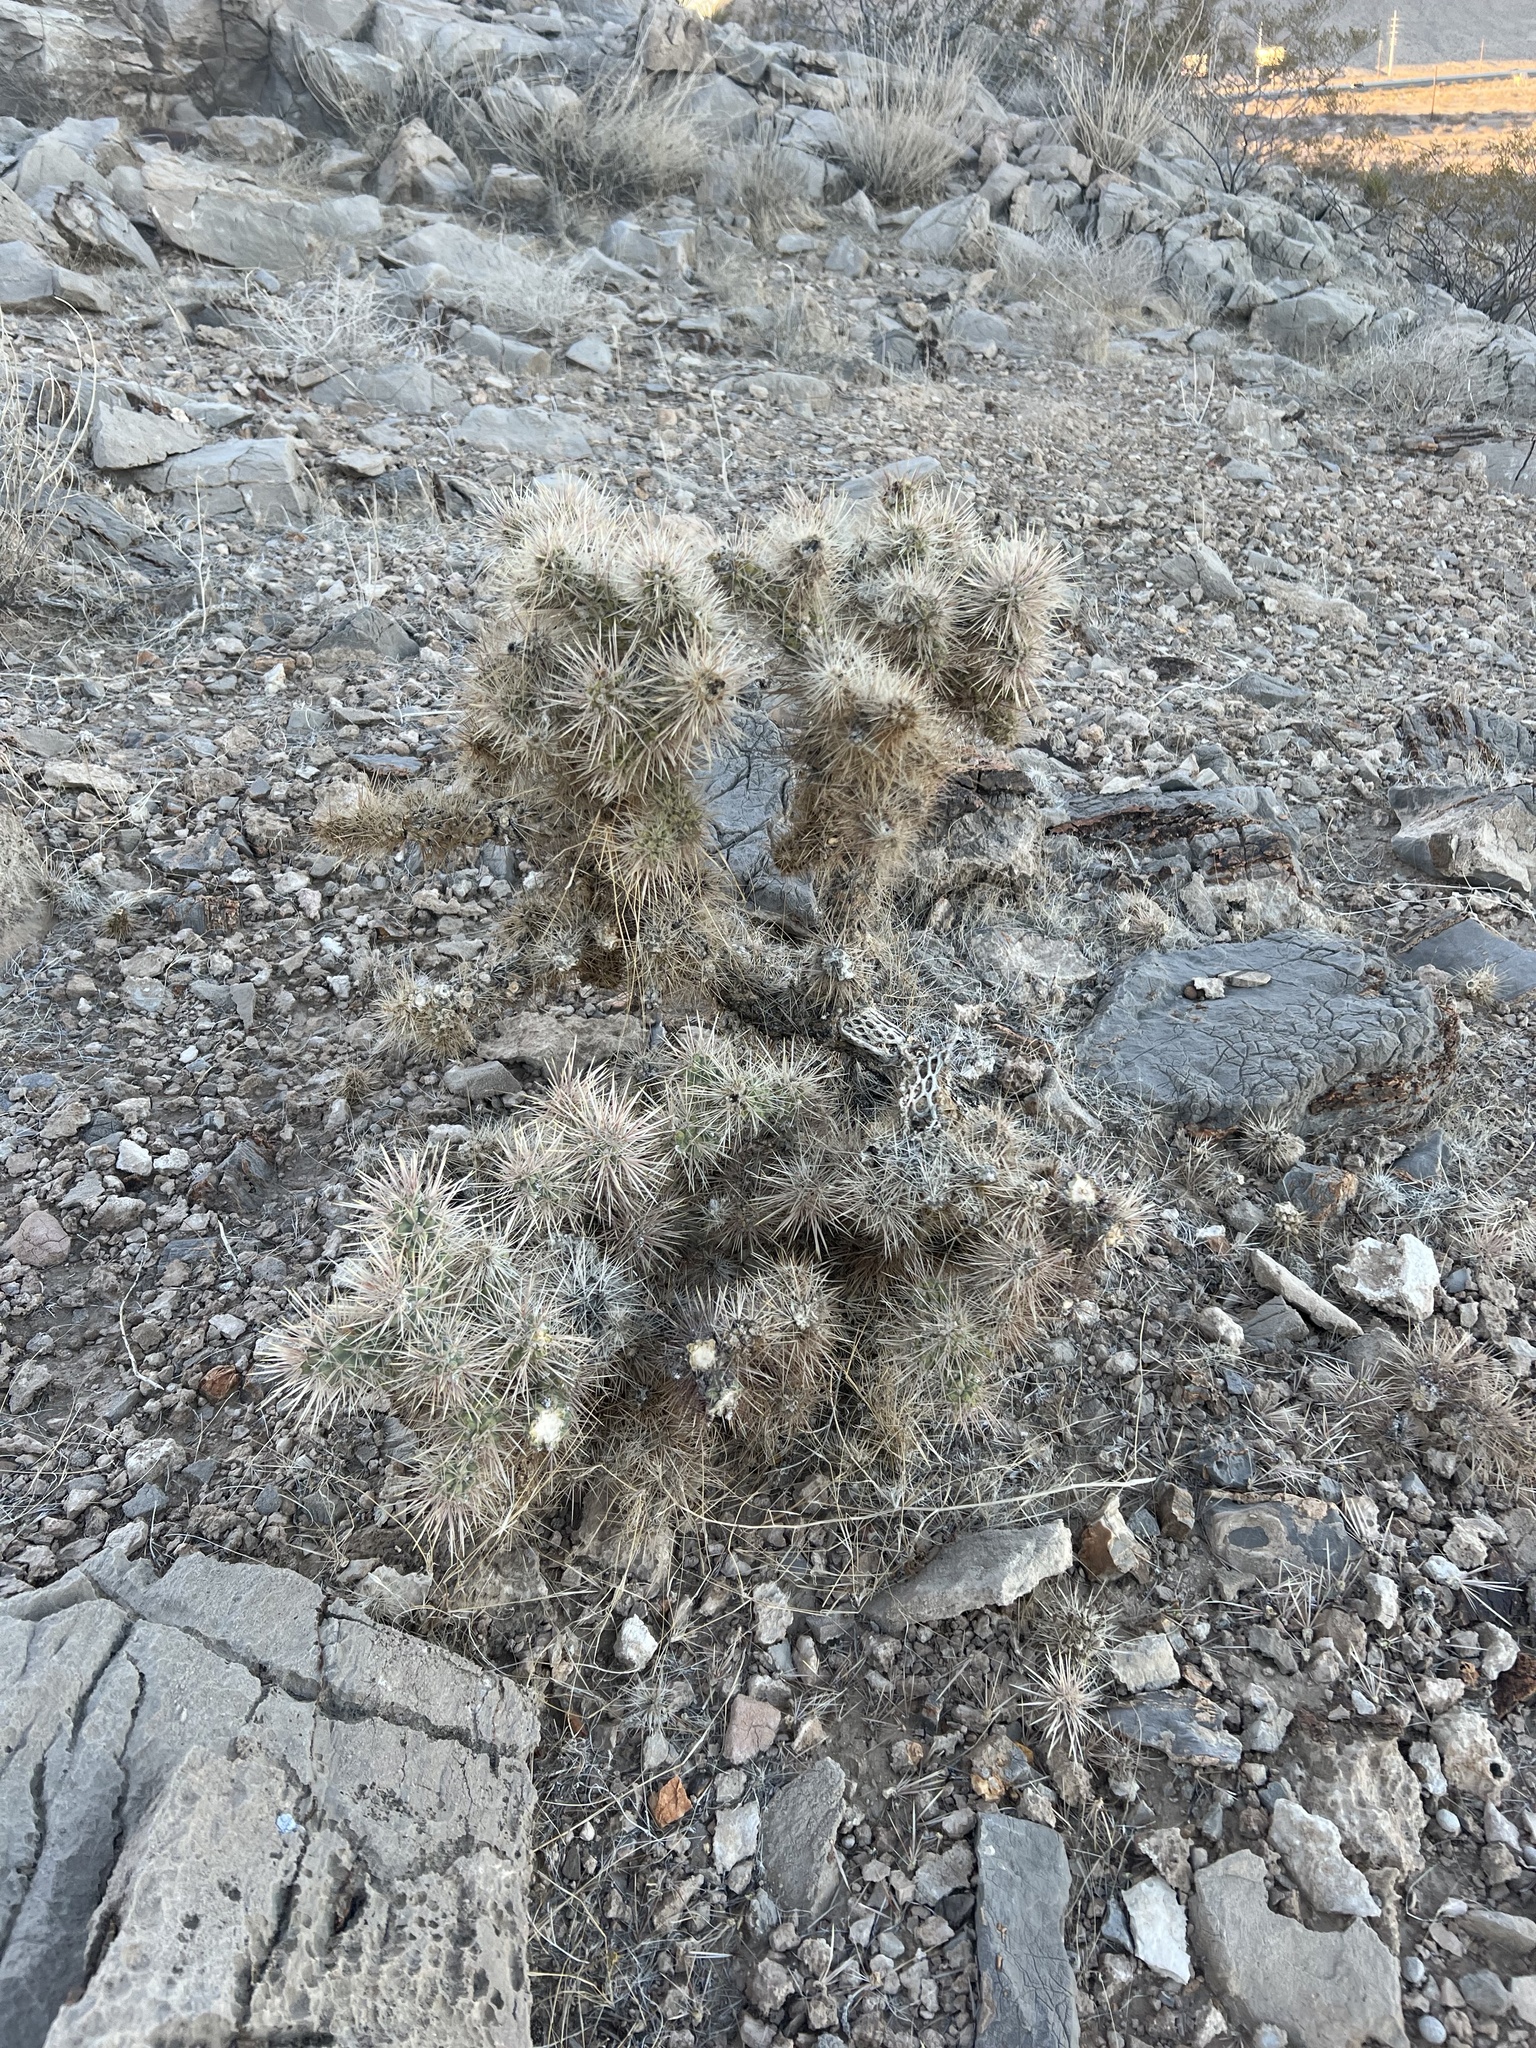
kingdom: Plantae
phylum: Tracheophyta
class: Magnoliopsida
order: Caryophyllales
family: Cactaceae
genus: Cylindropuntia
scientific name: Cylindropuntia echinocarpa
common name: Ground cholla
